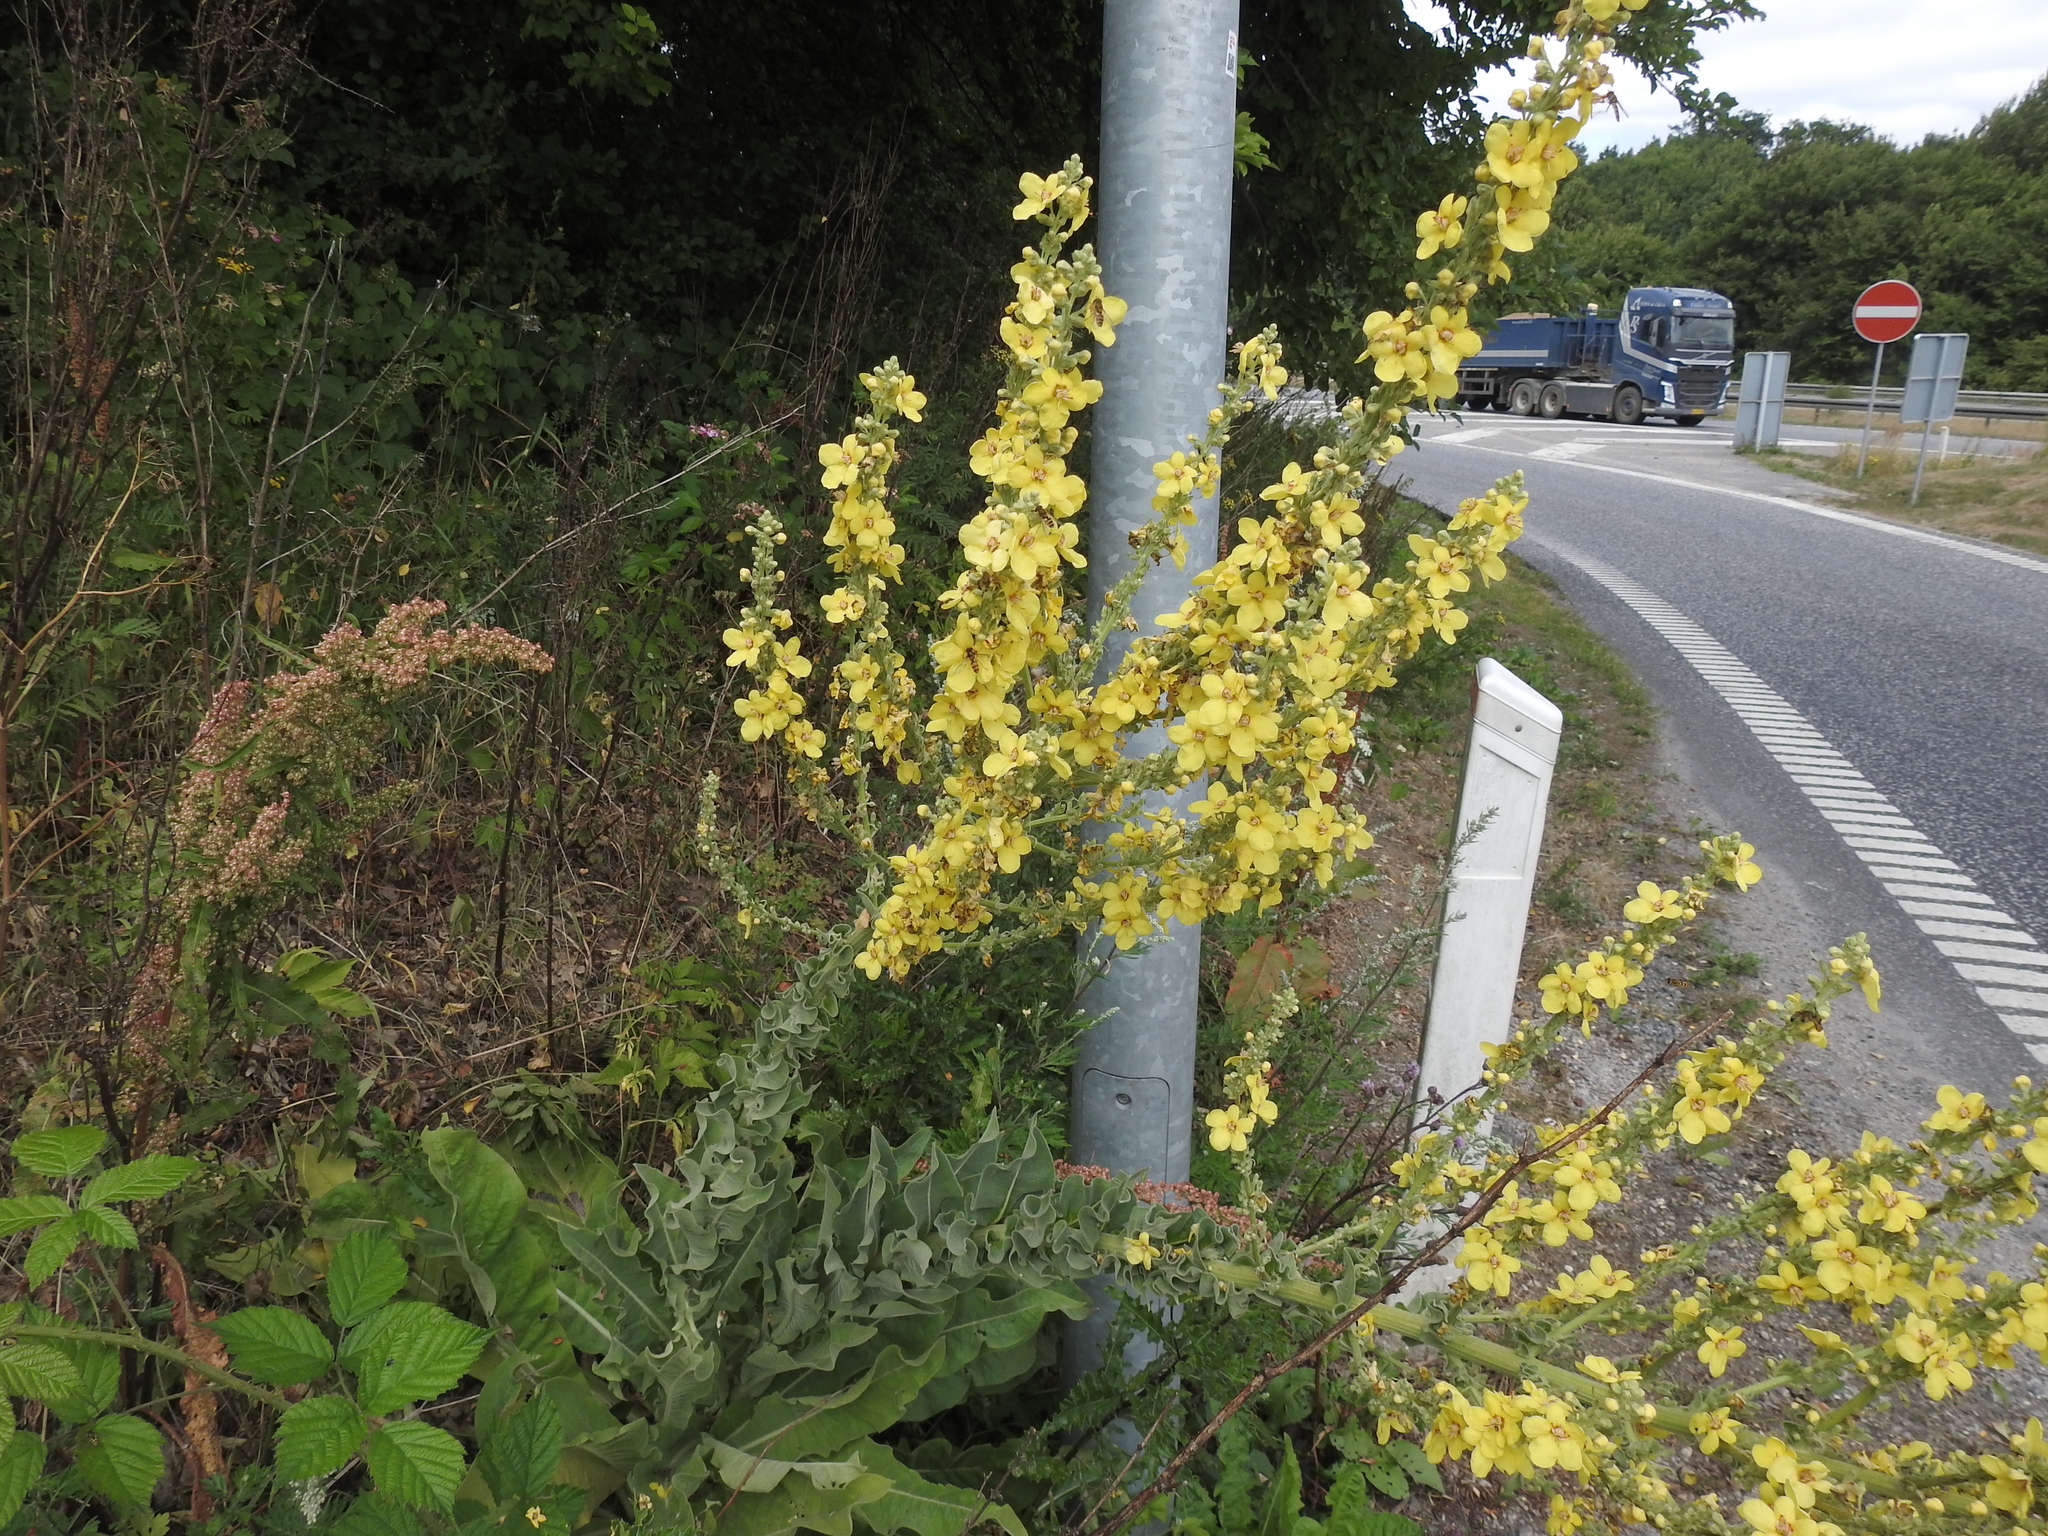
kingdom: Plantae
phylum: Tracheophyta
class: Magnoliopsida
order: Lamiales
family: Scrophulariaceae
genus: Verbascum
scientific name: Verbascum speciosum
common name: Hungarian mullein
